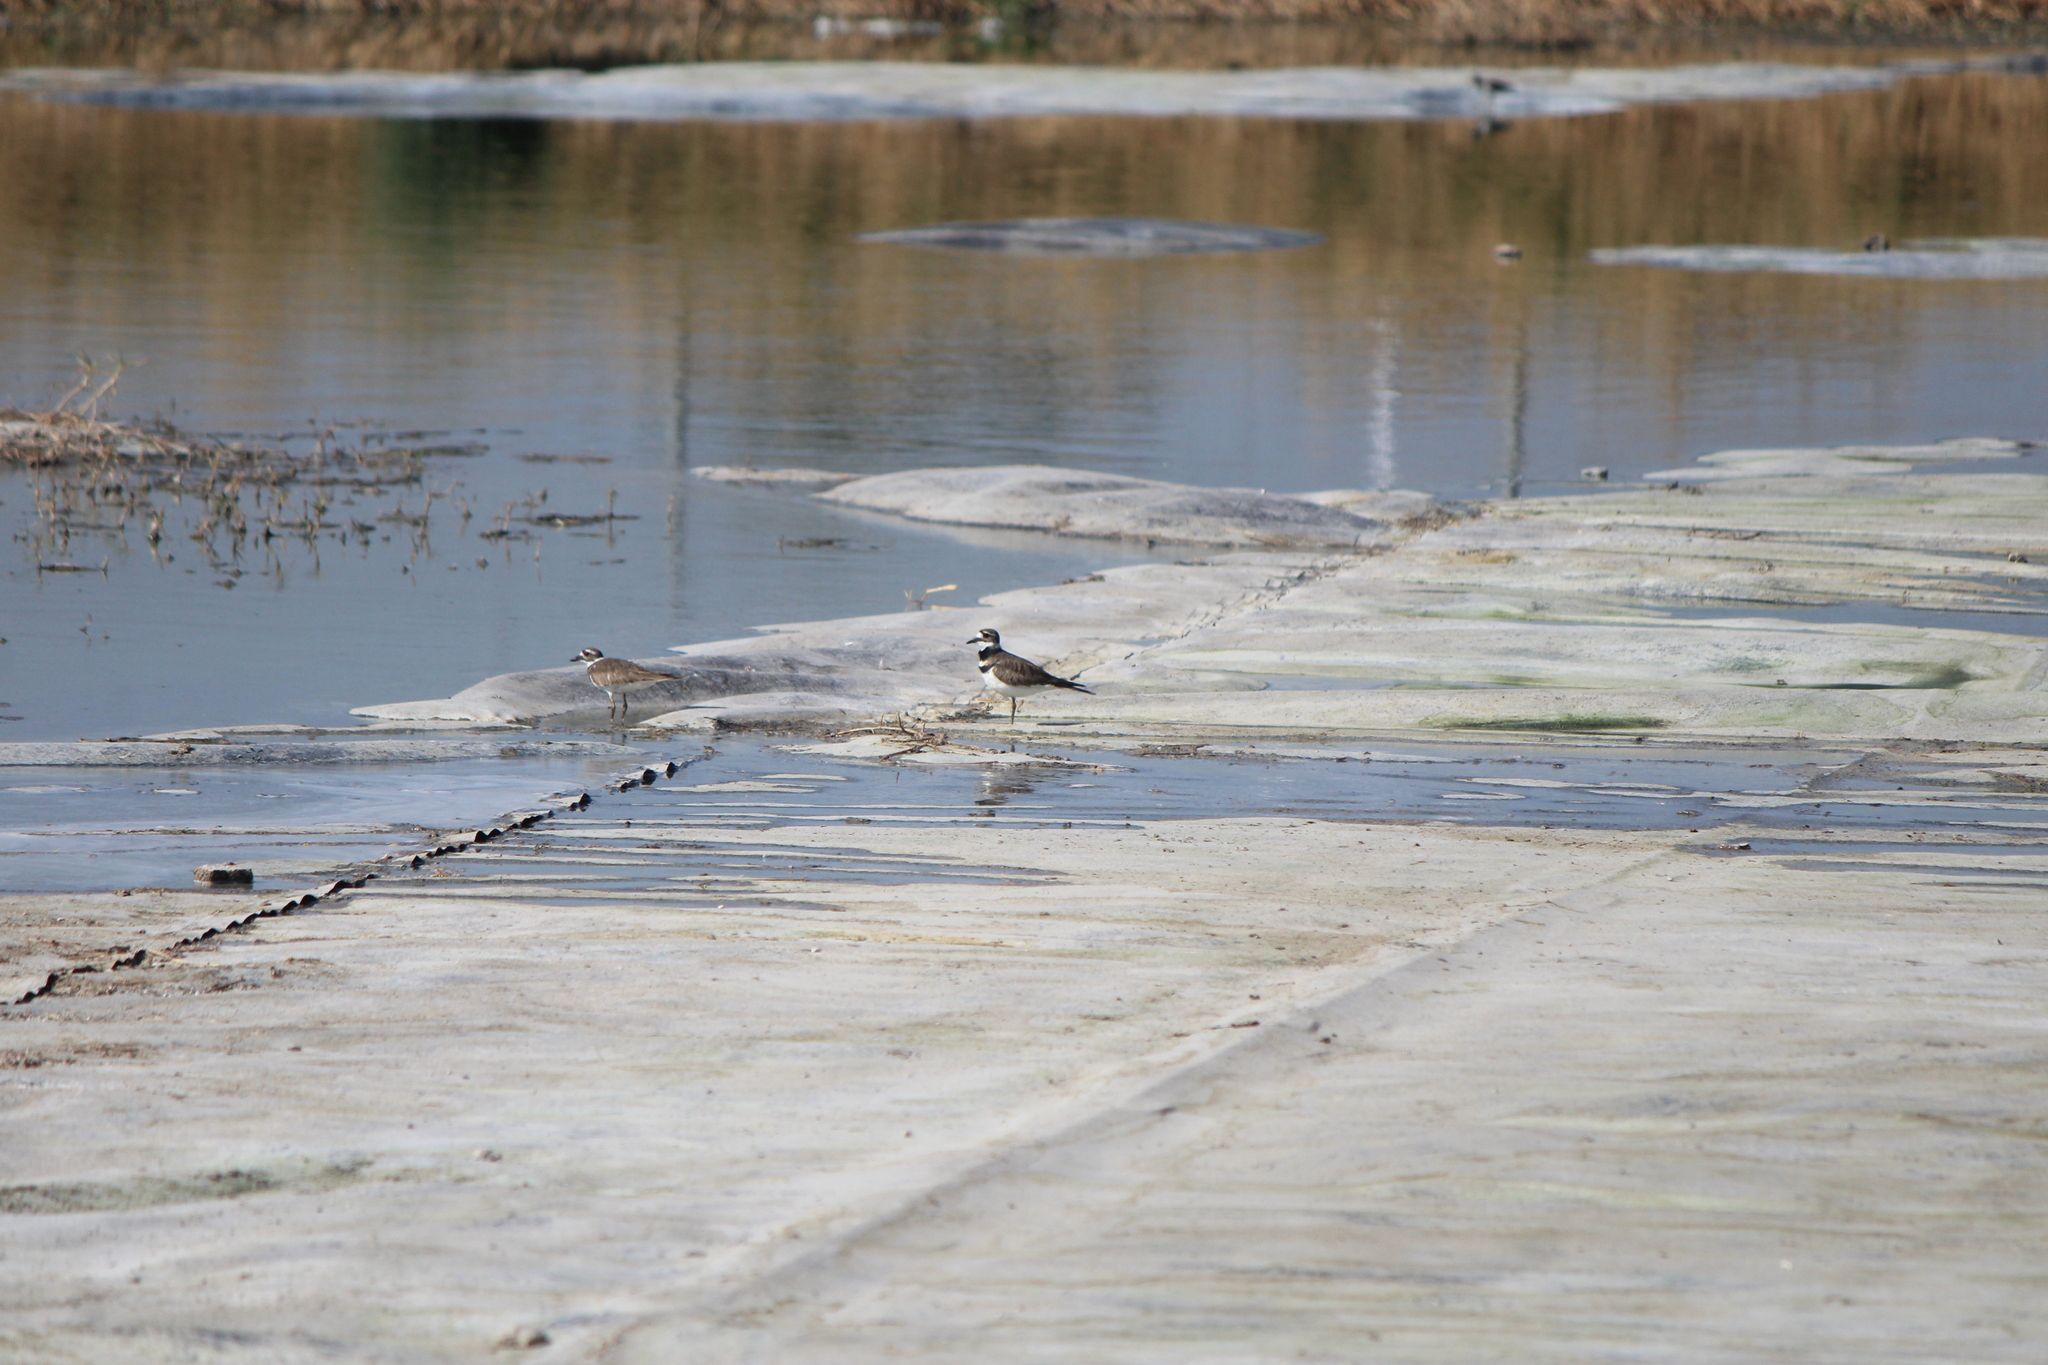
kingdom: Animalia
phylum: Chordata
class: Aves
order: Charadriiformes
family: Charadriidae
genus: Charadrius
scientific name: Charadrius vociferus
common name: Killdeer
